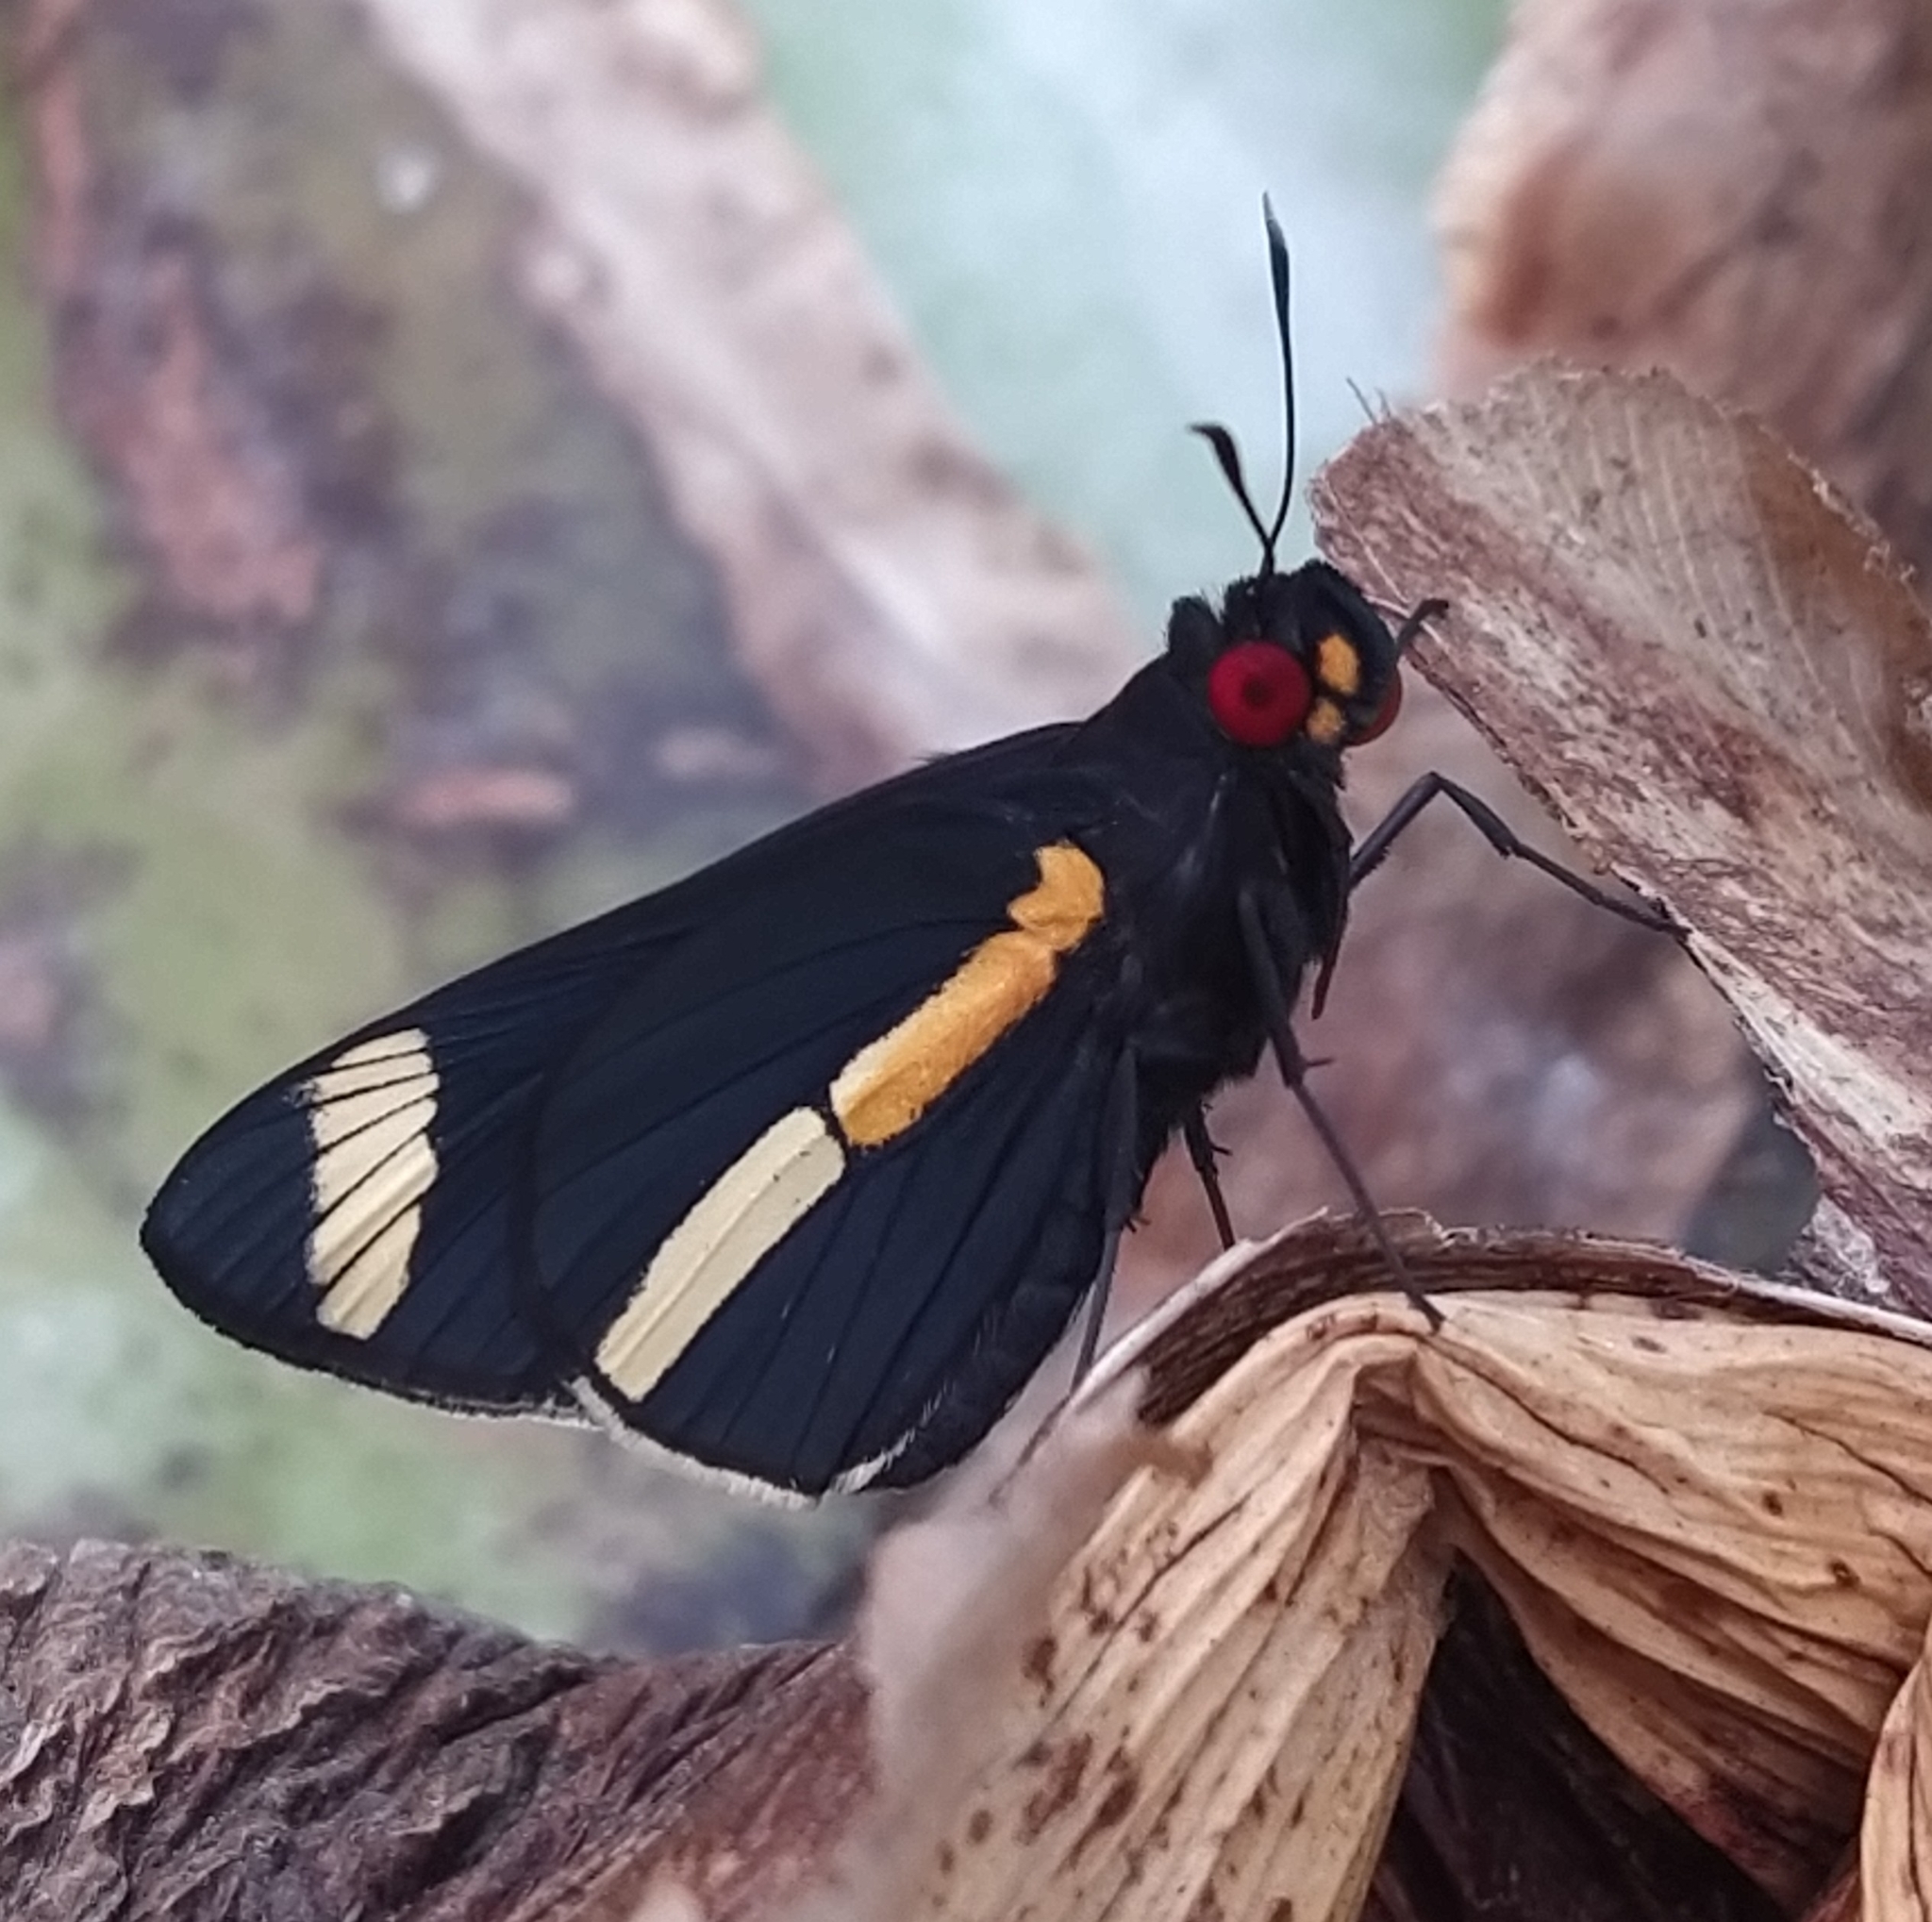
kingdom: Animalia
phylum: Arthropoda
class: Insecta
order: Lepidoptera
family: Hesperiidae
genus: Carystus
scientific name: Carystus
